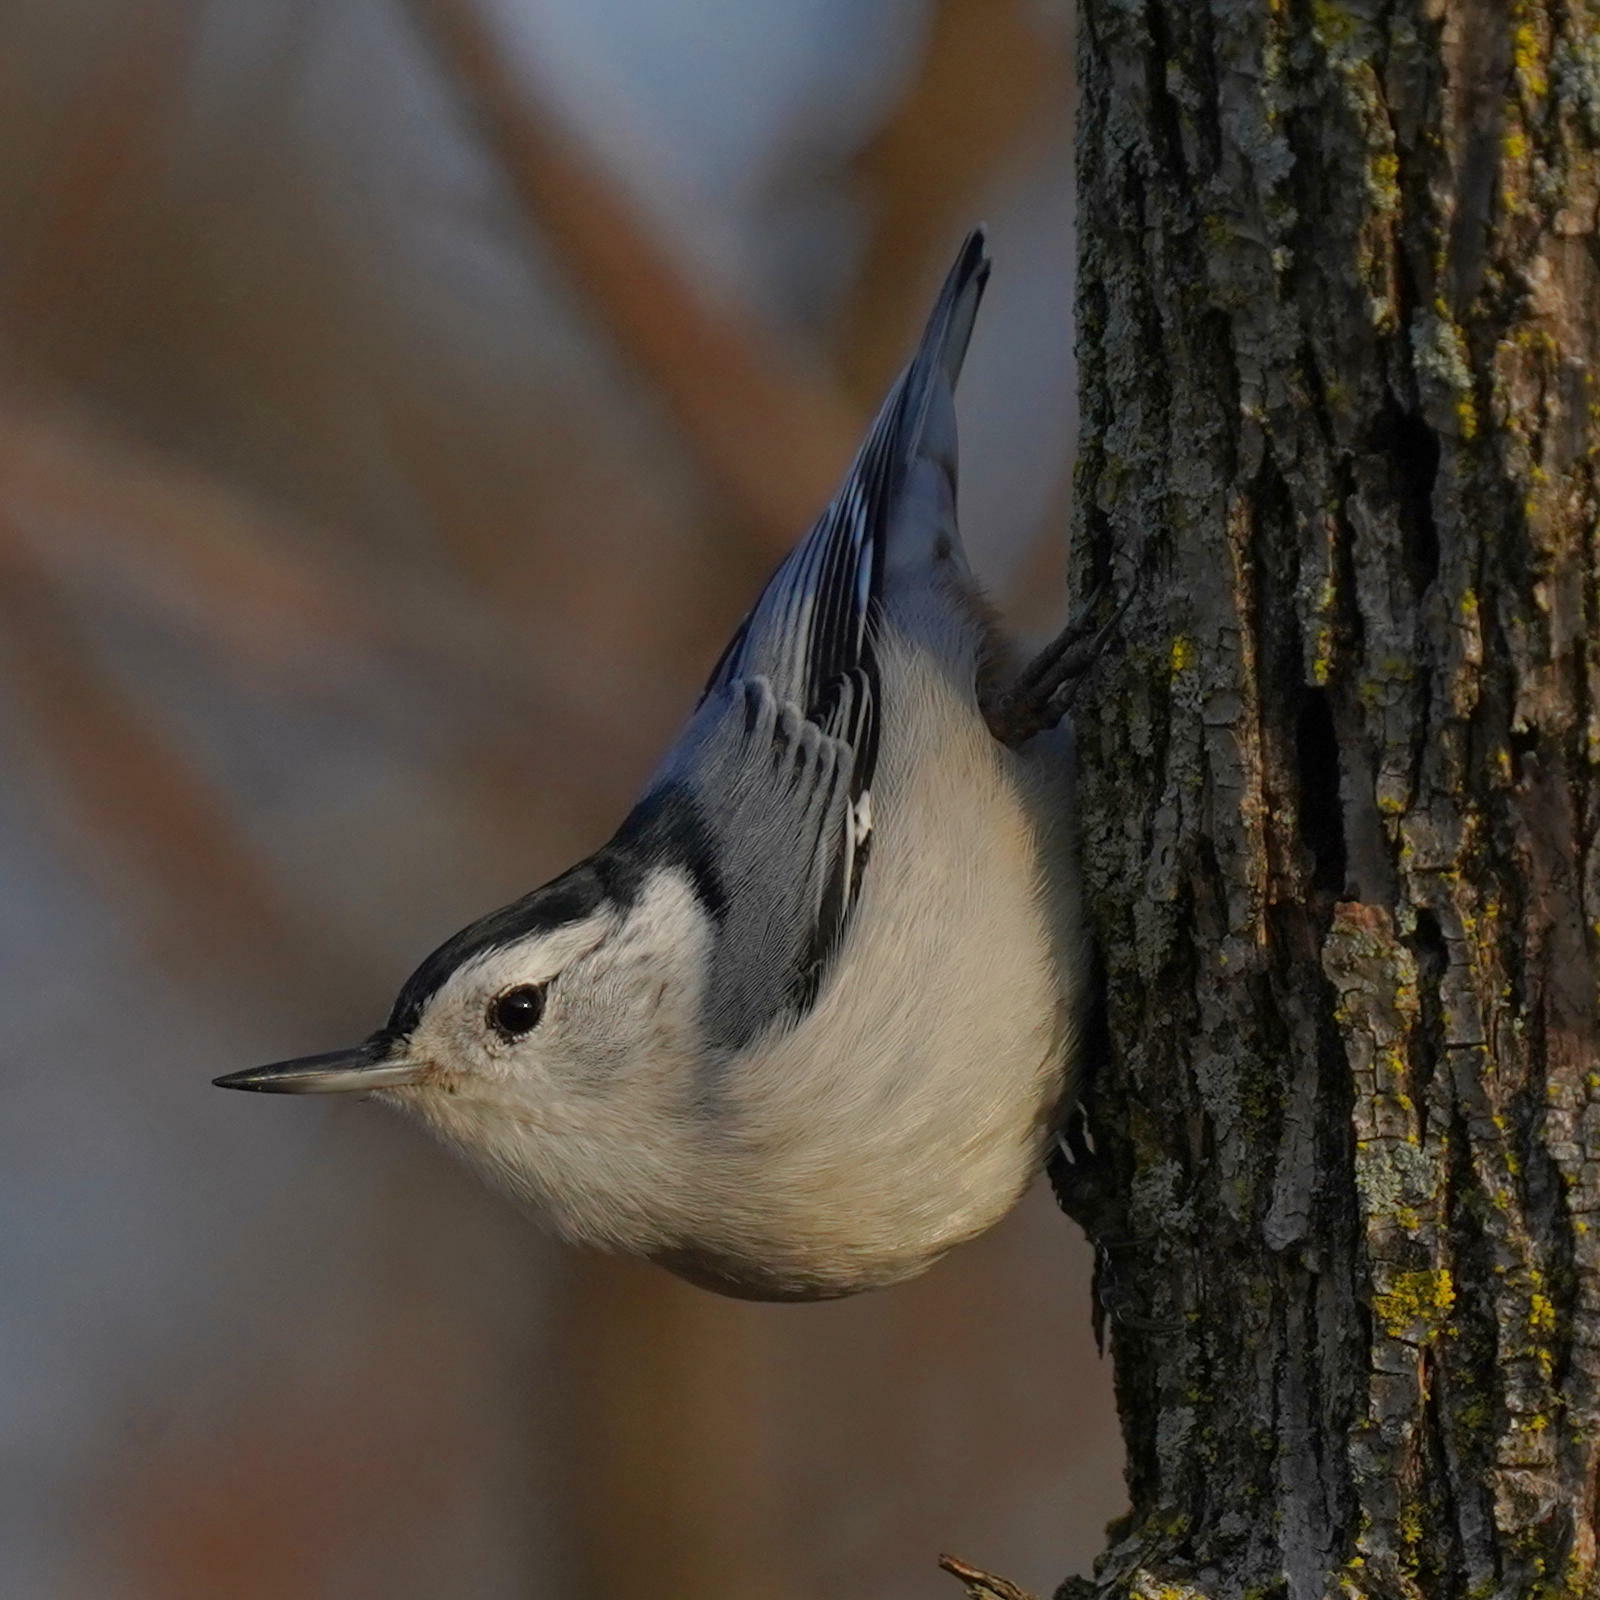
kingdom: Animalia
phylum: Chordata
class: Aves
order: Passeriformes
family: Sittidae
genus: Sitta
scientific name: Sitta carolinensis
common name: White-breasted nuthatch
